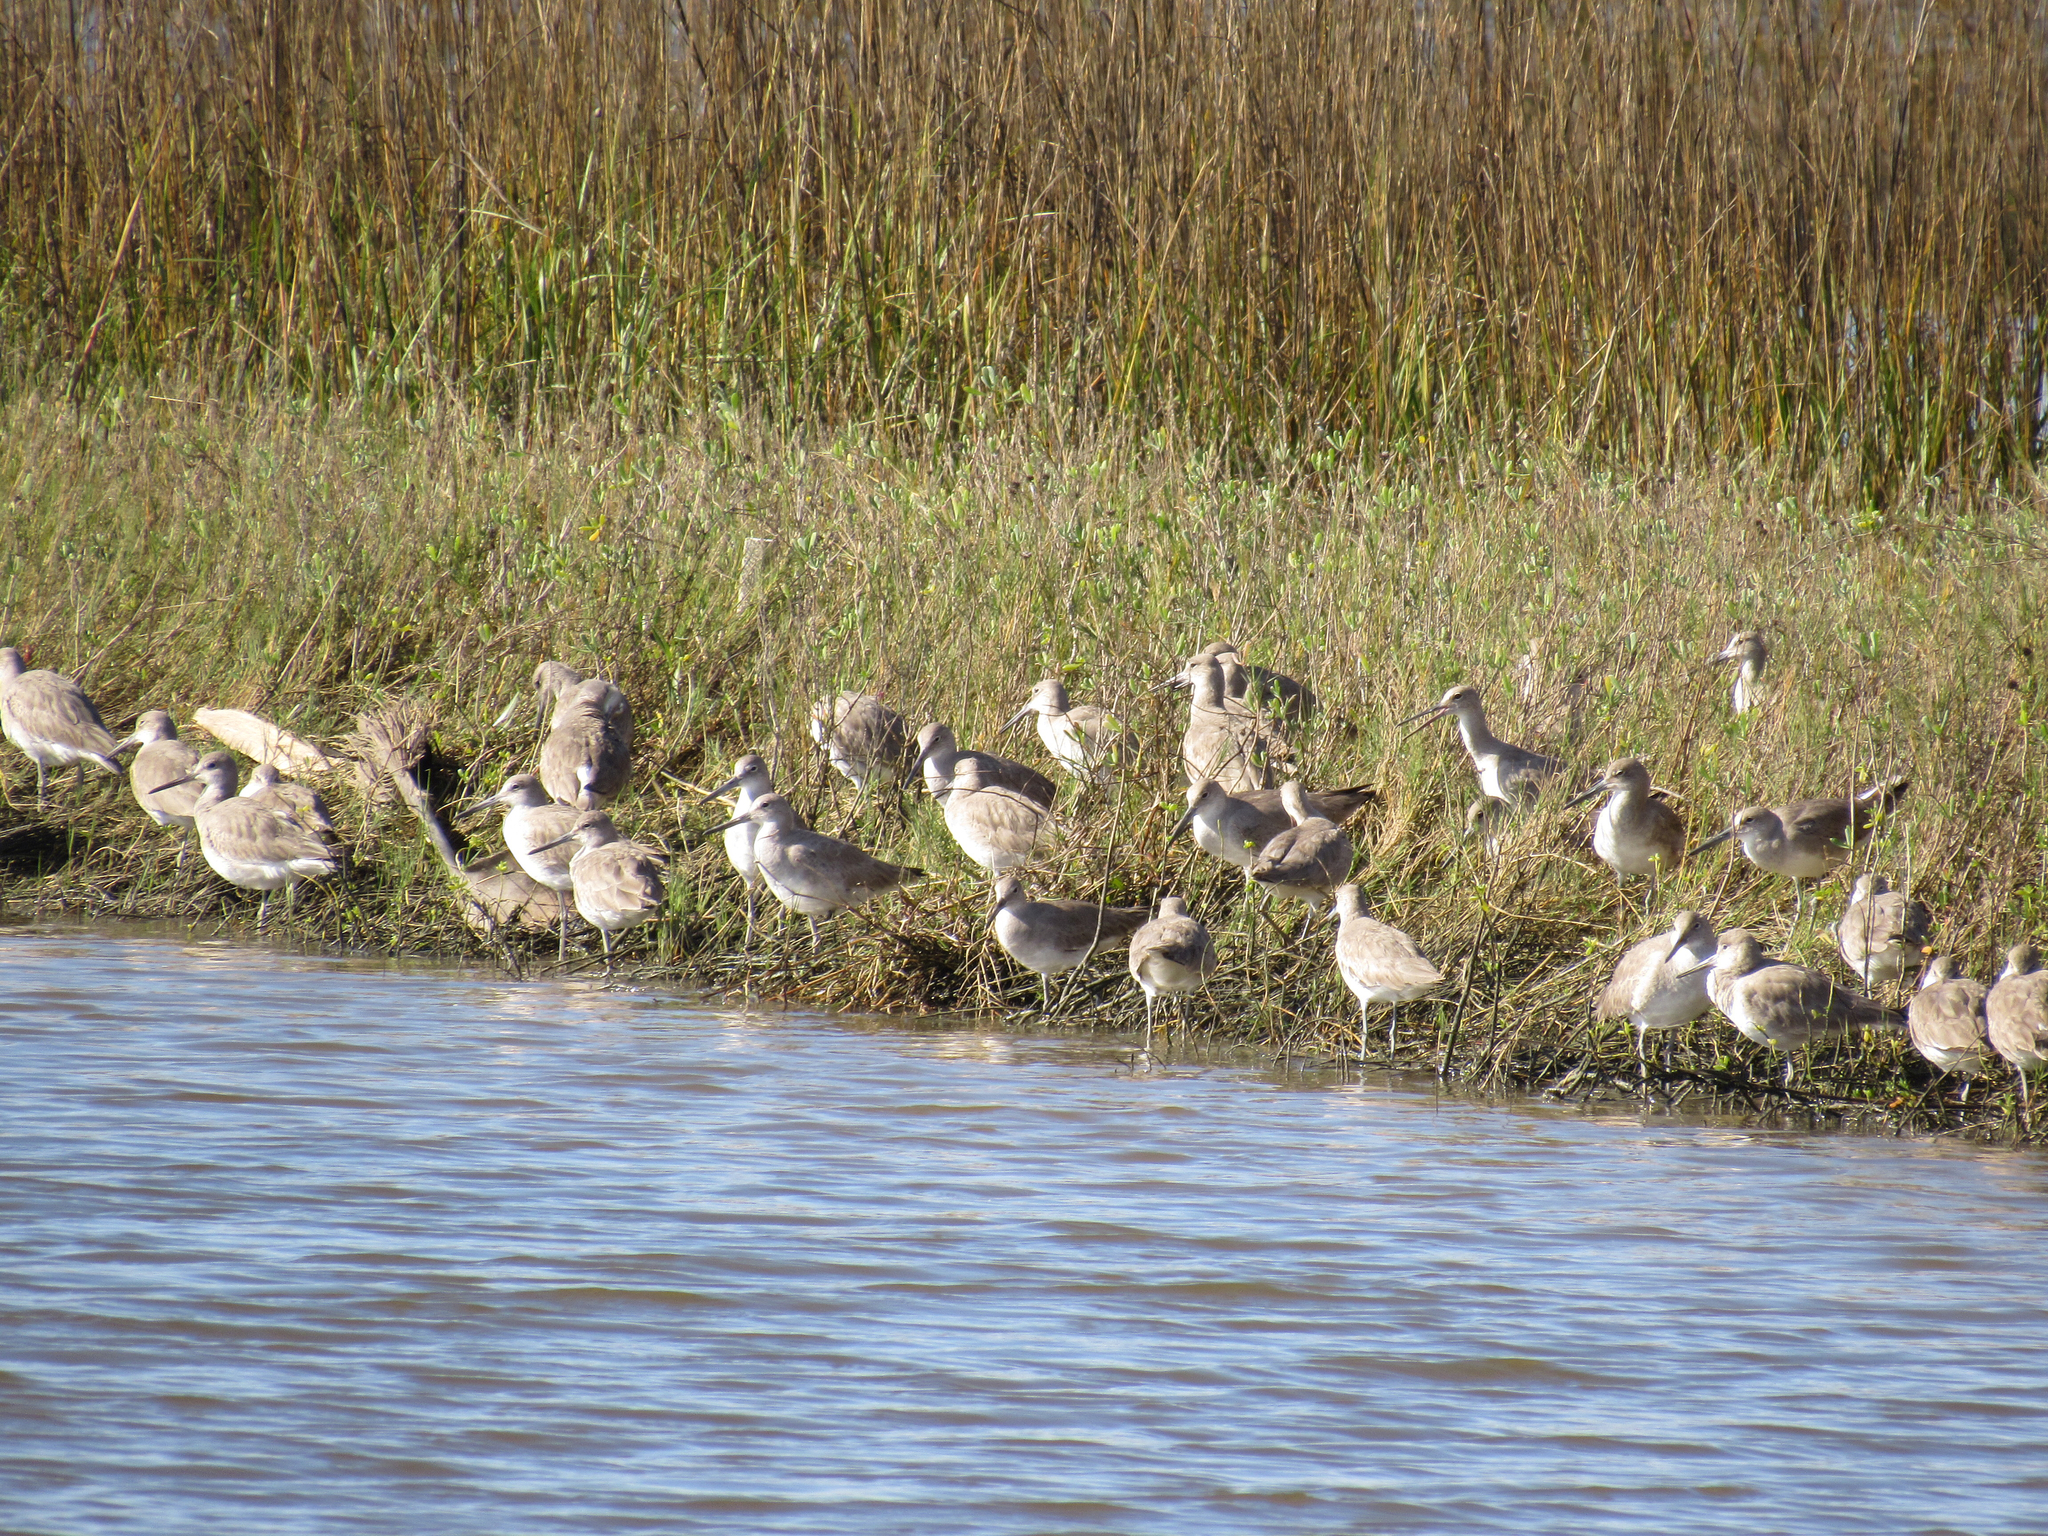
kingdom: Animalia
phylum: Chordata
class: Aves
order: Charadriiformes
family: Scolopacidae
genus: Tringa
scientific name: Tringa semipalmata
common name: Willet
